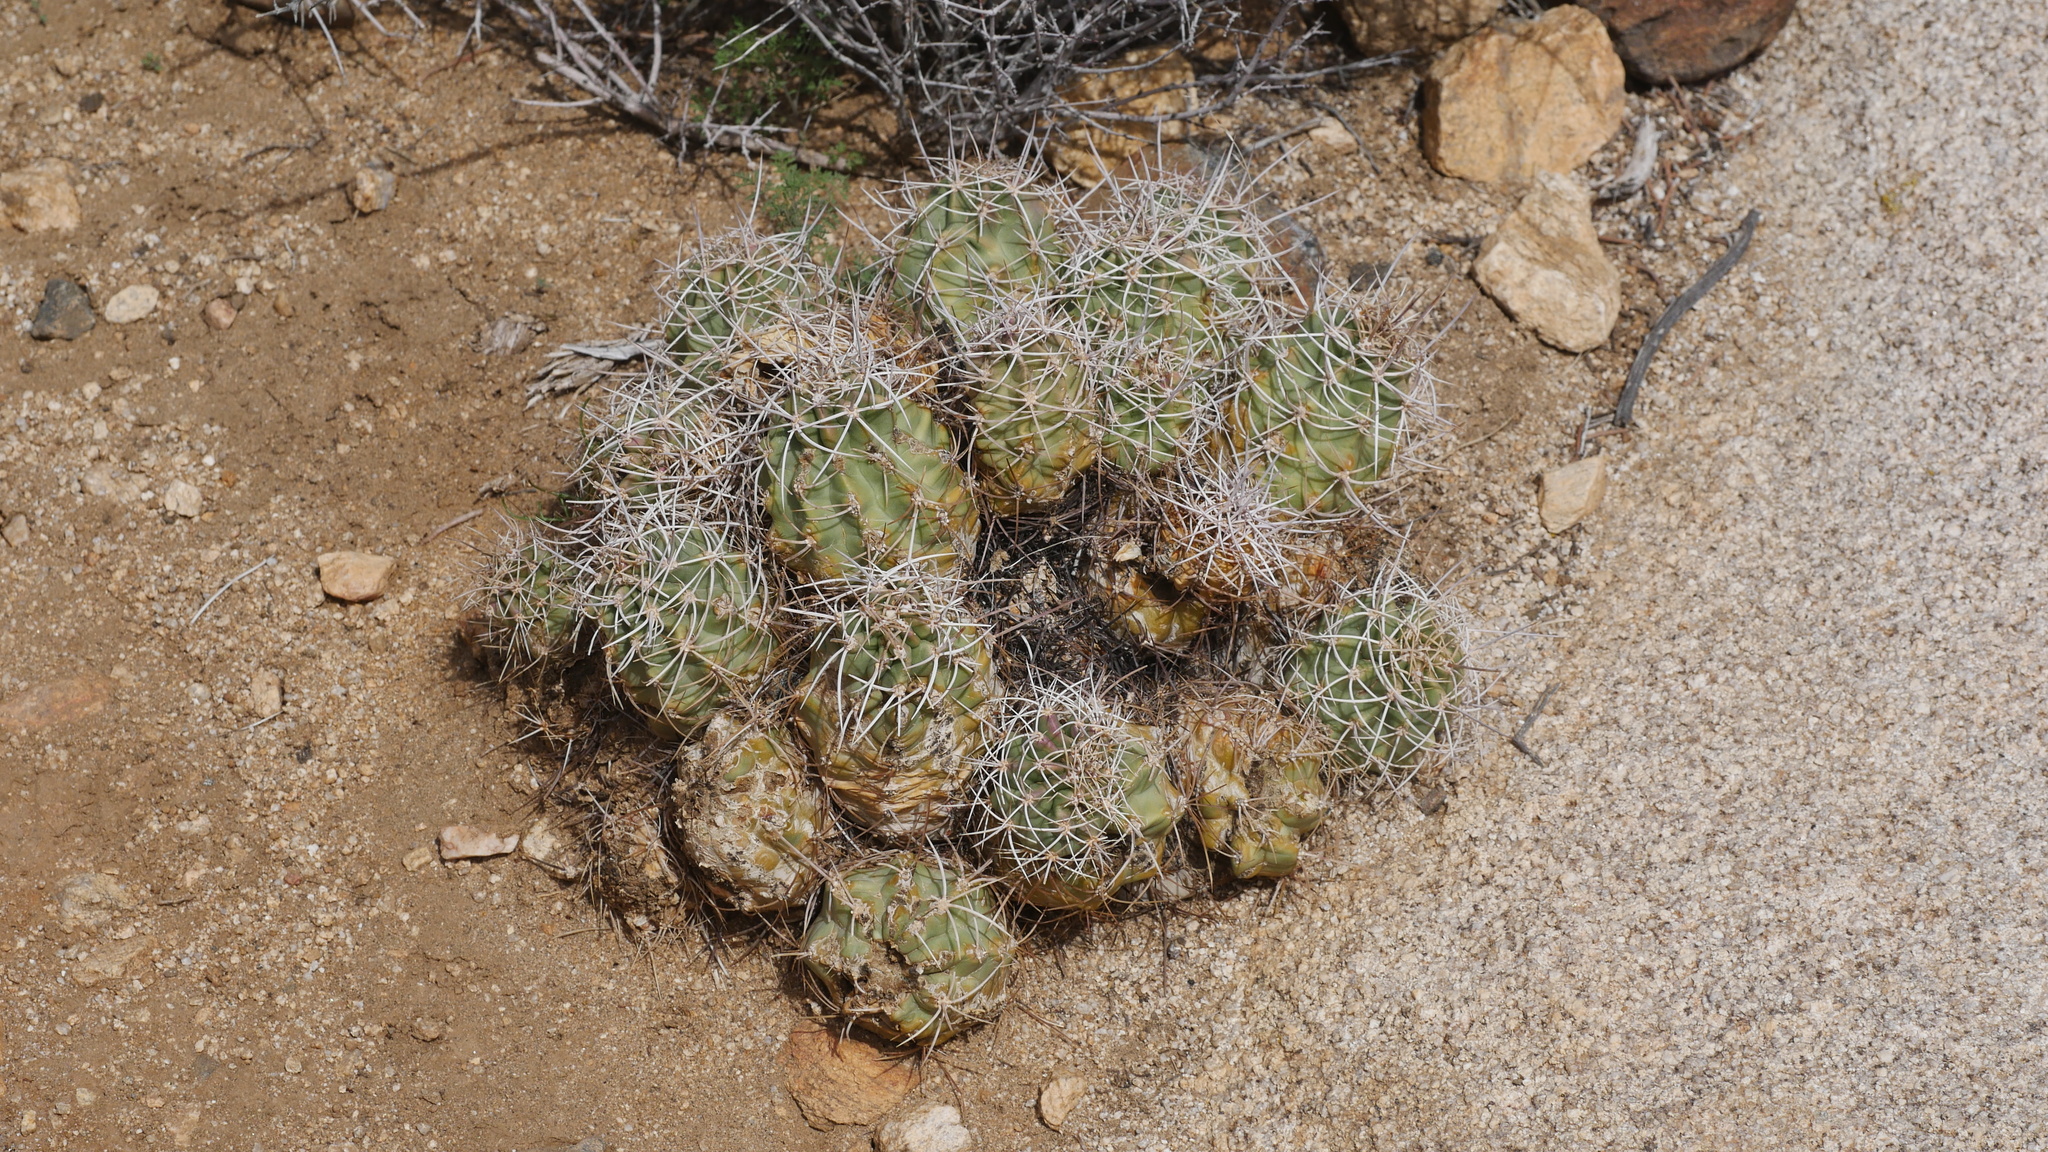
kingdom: Plantae
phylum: Tracheophyta
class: Magnoliopsida
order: Caryophyllales
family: Cactaceae
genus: Echinocereus
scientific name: Echinocereus triglochidiatus
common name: Claretcup hedgehog
